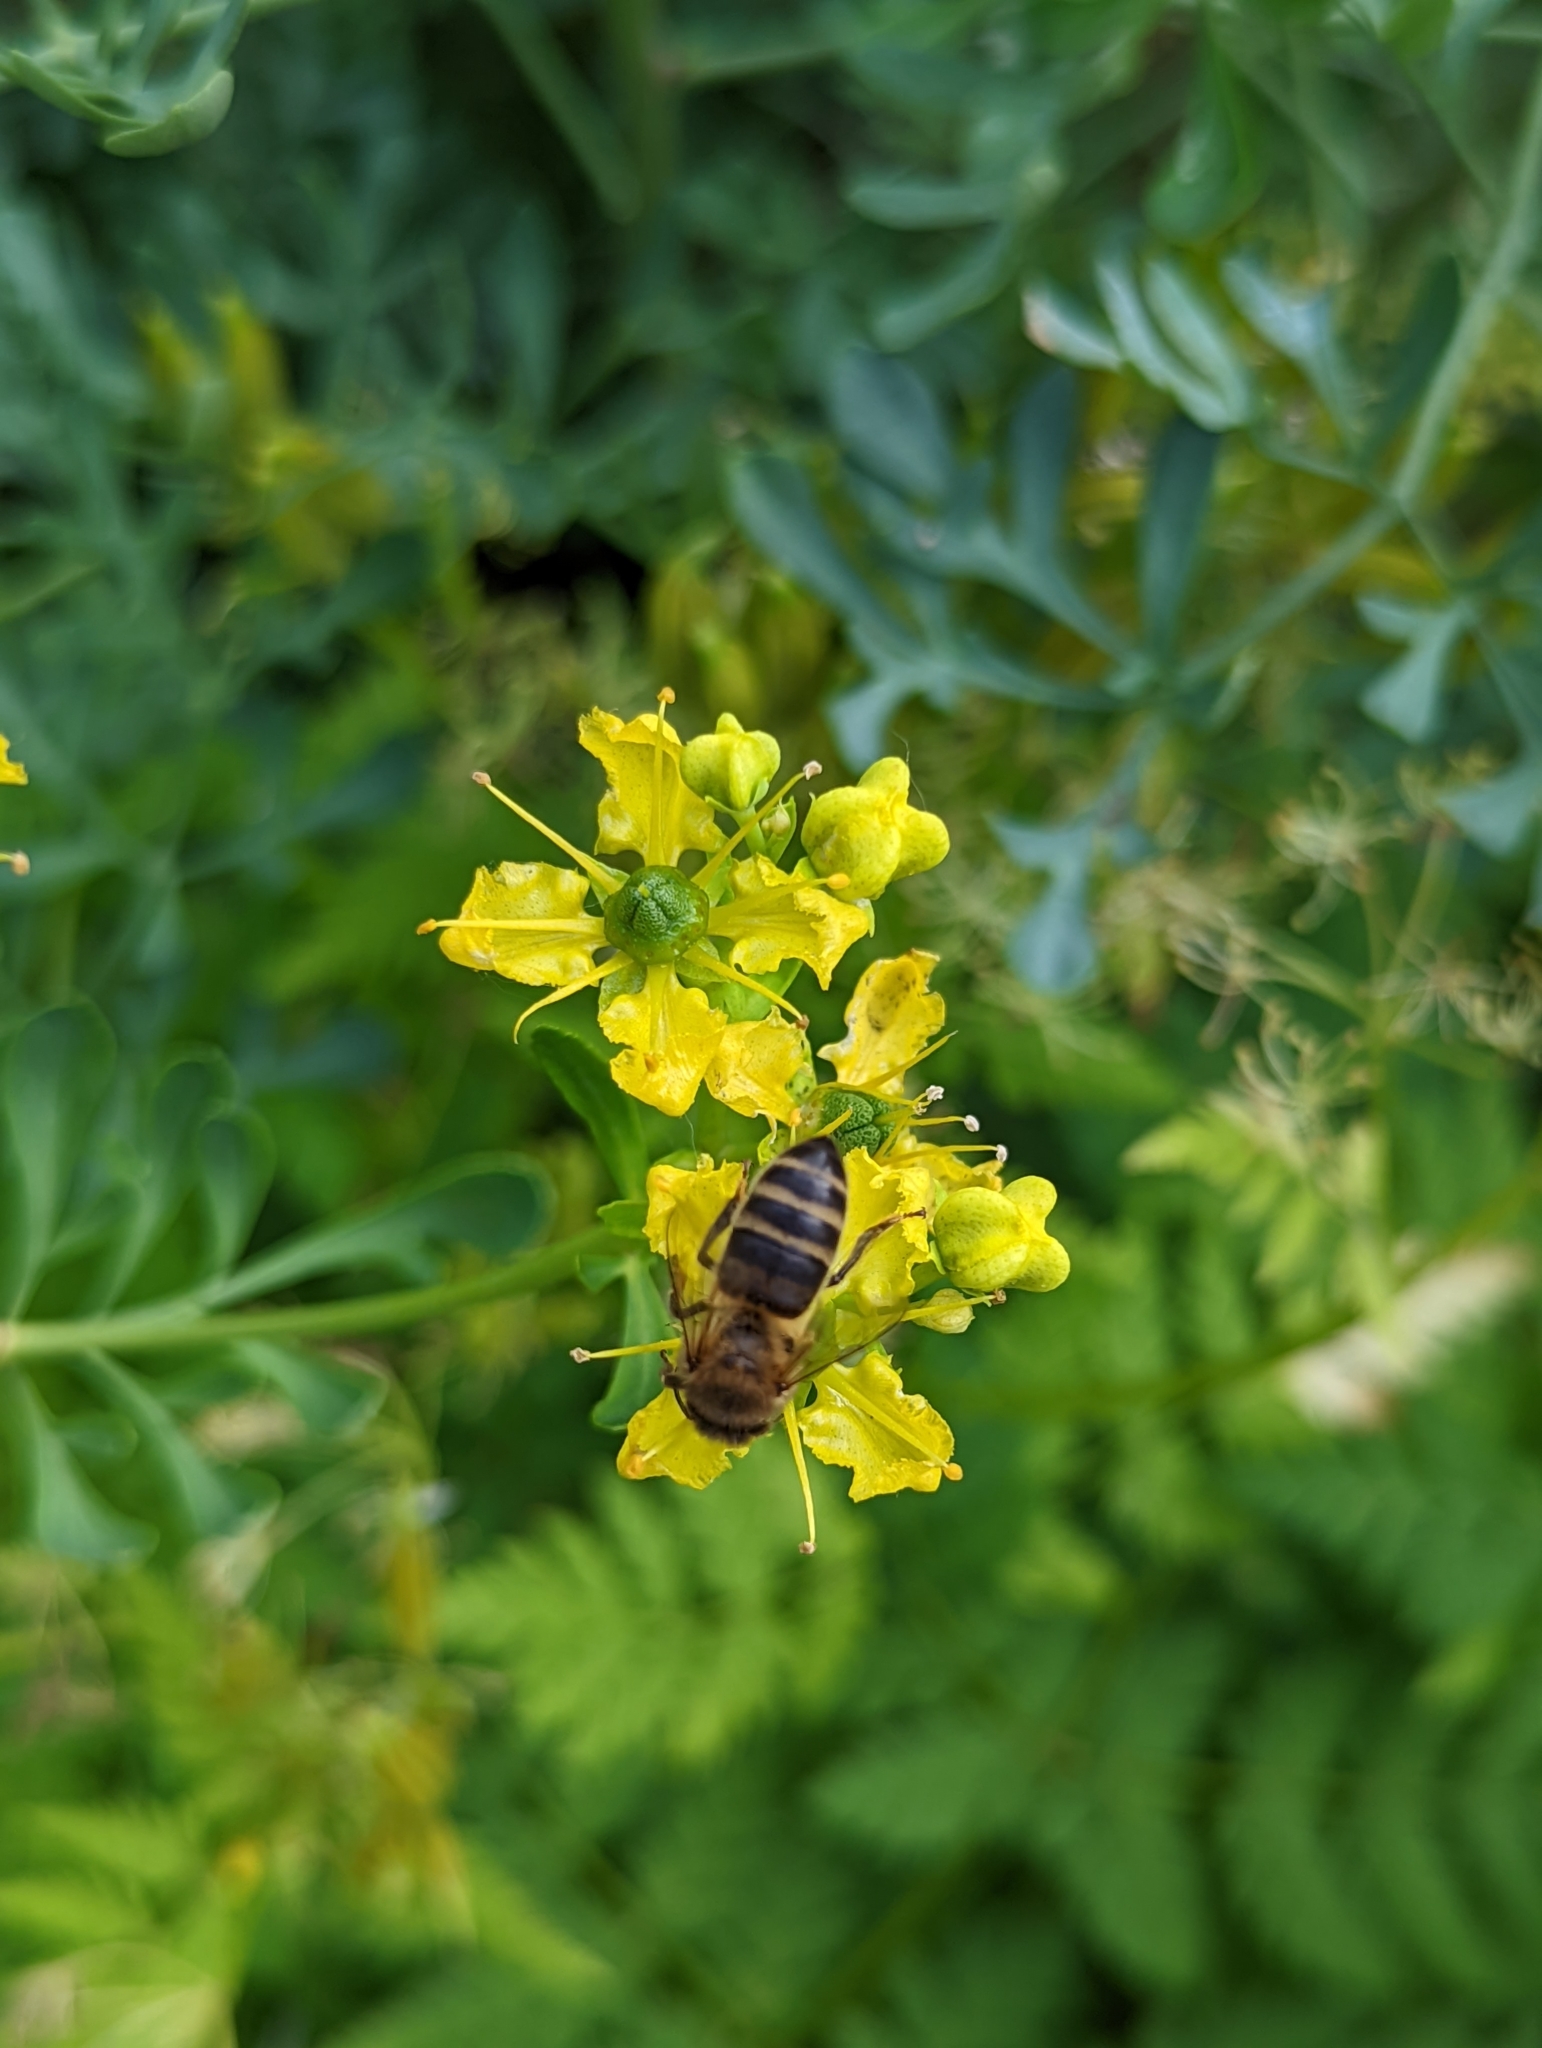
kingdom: Animalia
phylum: Arthropoda
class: Insecta
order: Hymenoptera
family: Apidae
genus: Apis
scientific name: Apis mellifera
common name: Honey bee
